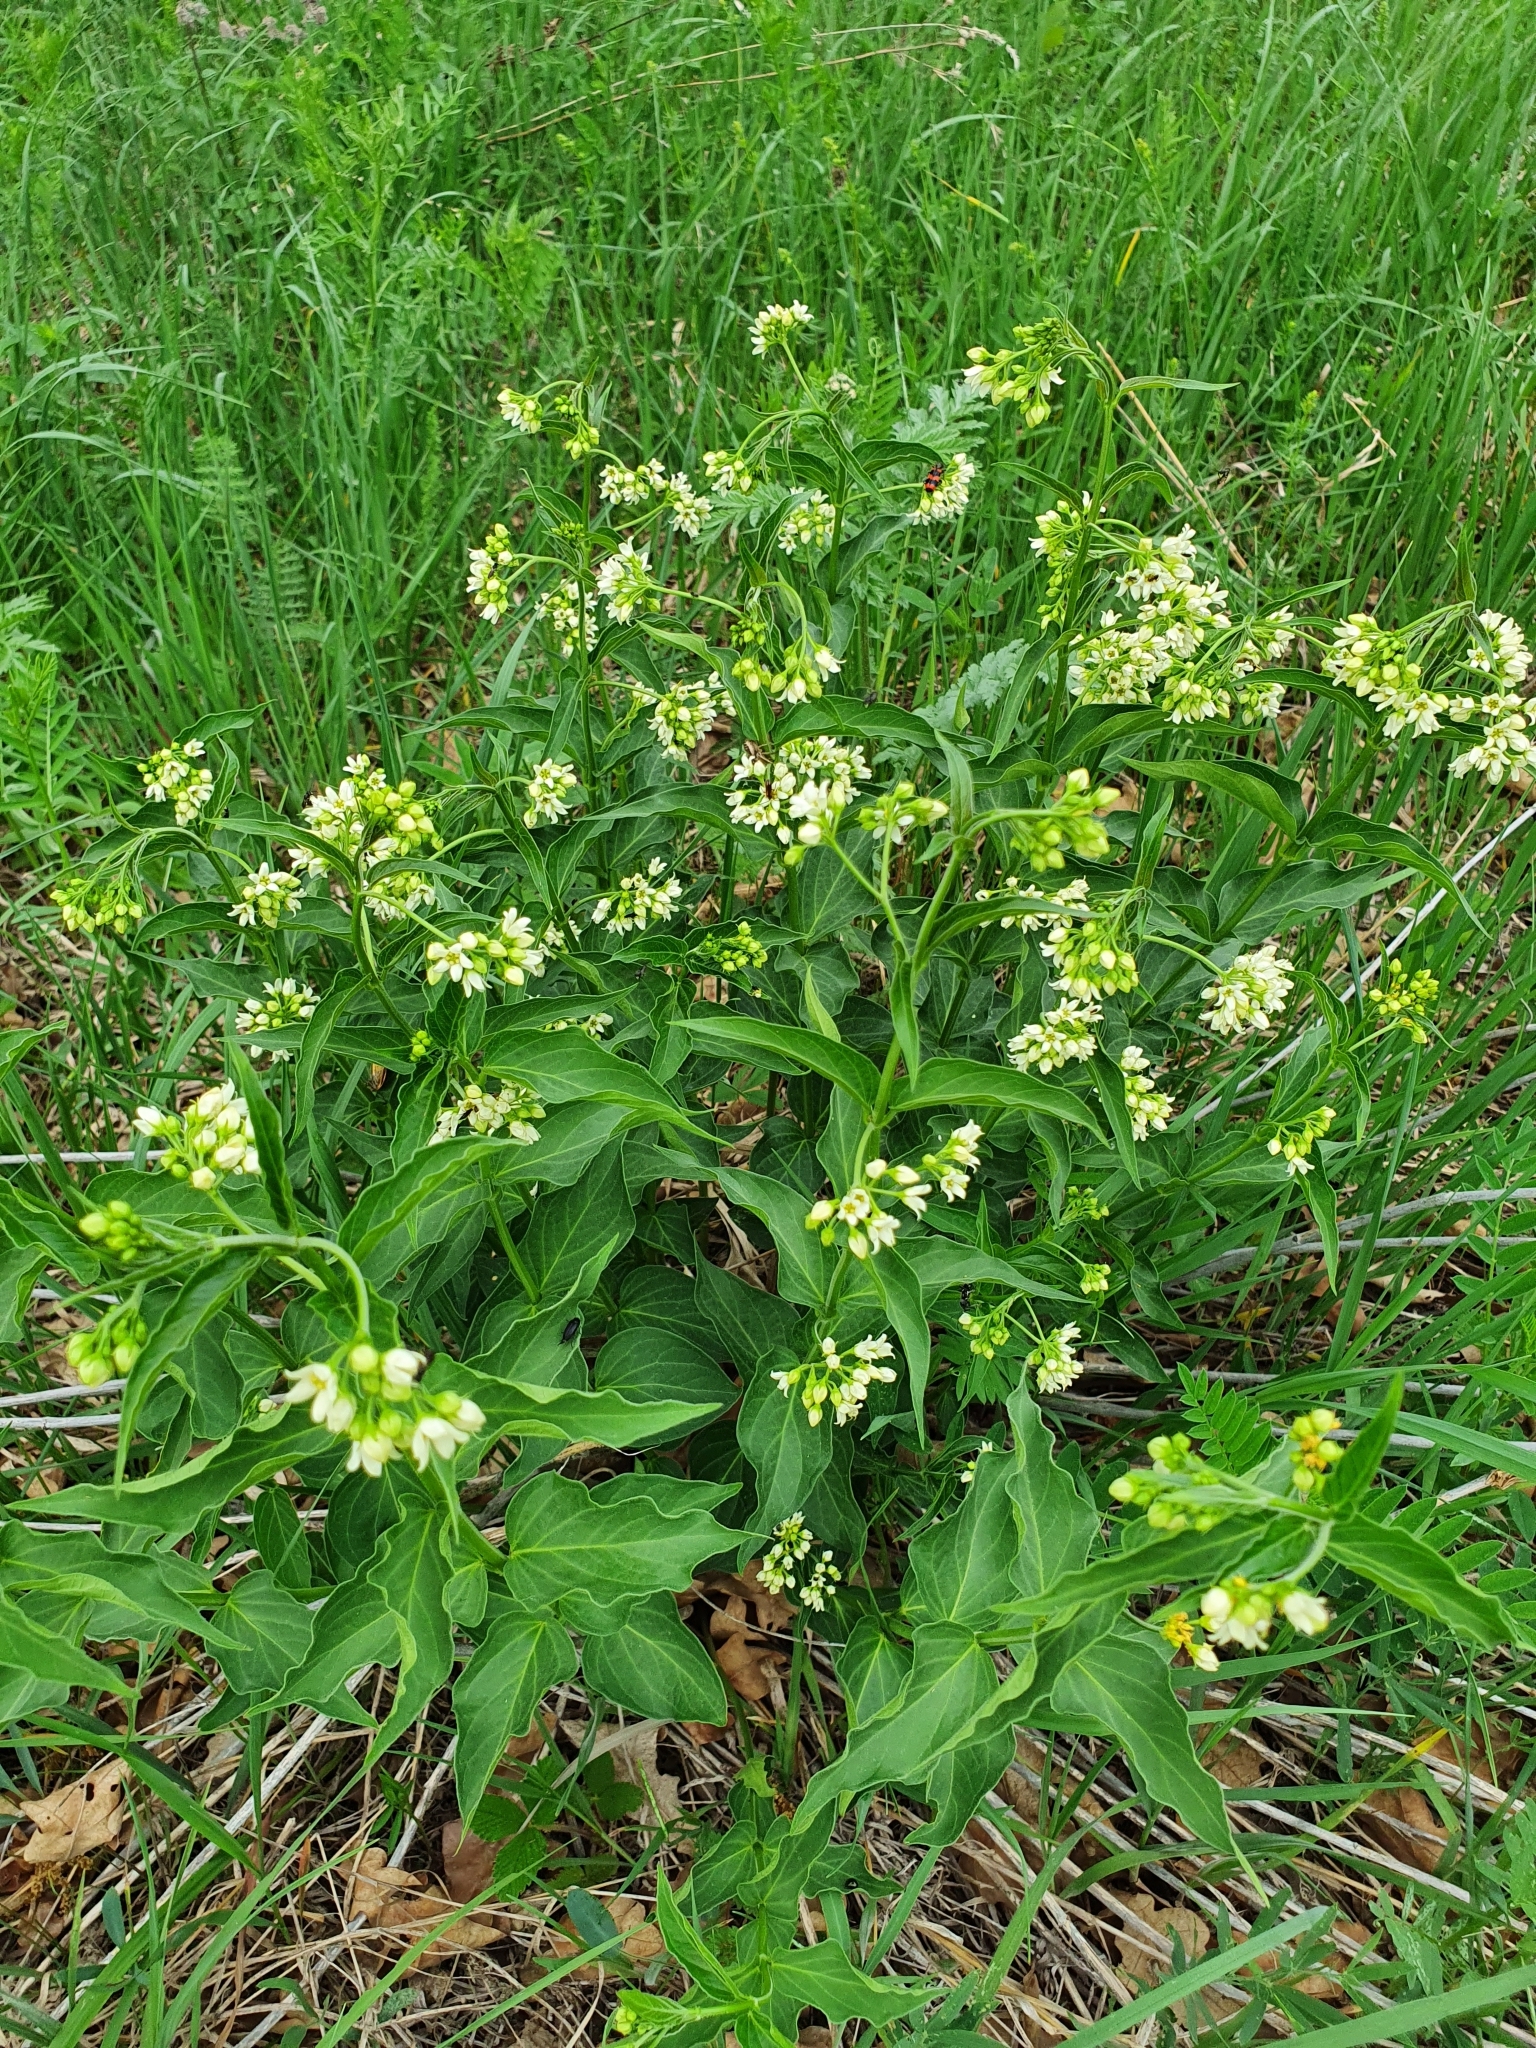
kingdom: Plantae
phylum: Tracheophyta
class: Magnoliopsida
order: Gentianales
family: Apocynaceae
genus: Vincetoxicum
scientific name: Vincetoxicum hirundinaria
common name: White swallowwort
